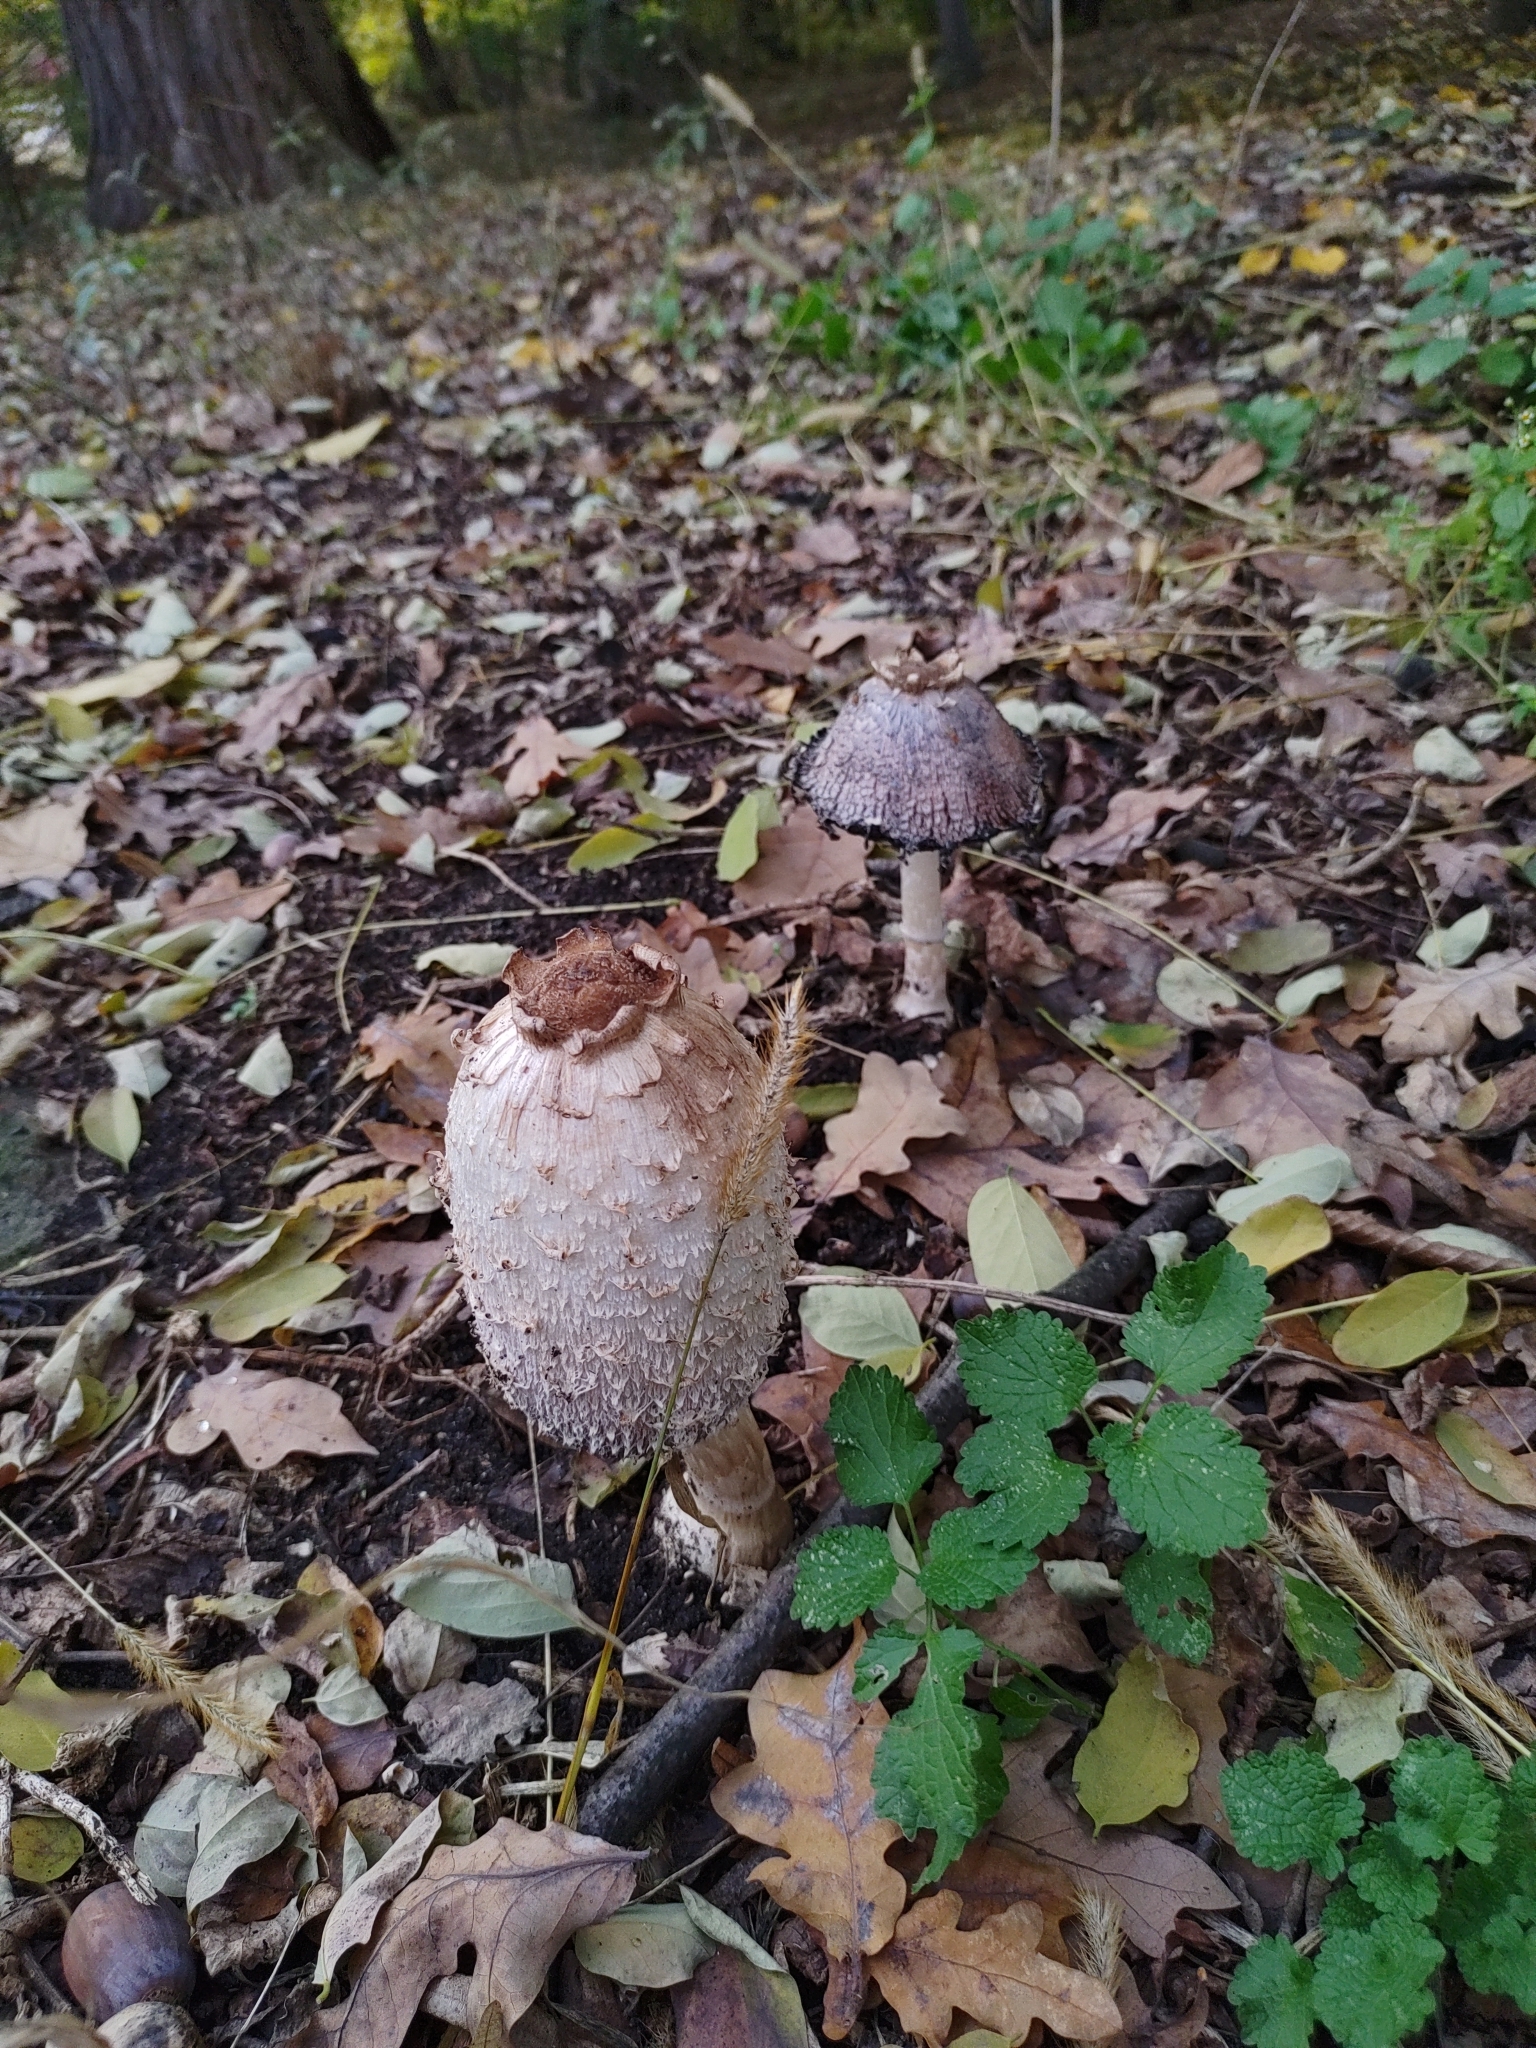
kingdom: Fungi
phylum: Basidiomycota
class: Agaricomycetes
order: Agaricales
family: Agaricaceae
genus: Coprinus
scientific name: Coprinus comatus
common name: Lawyer's wig
